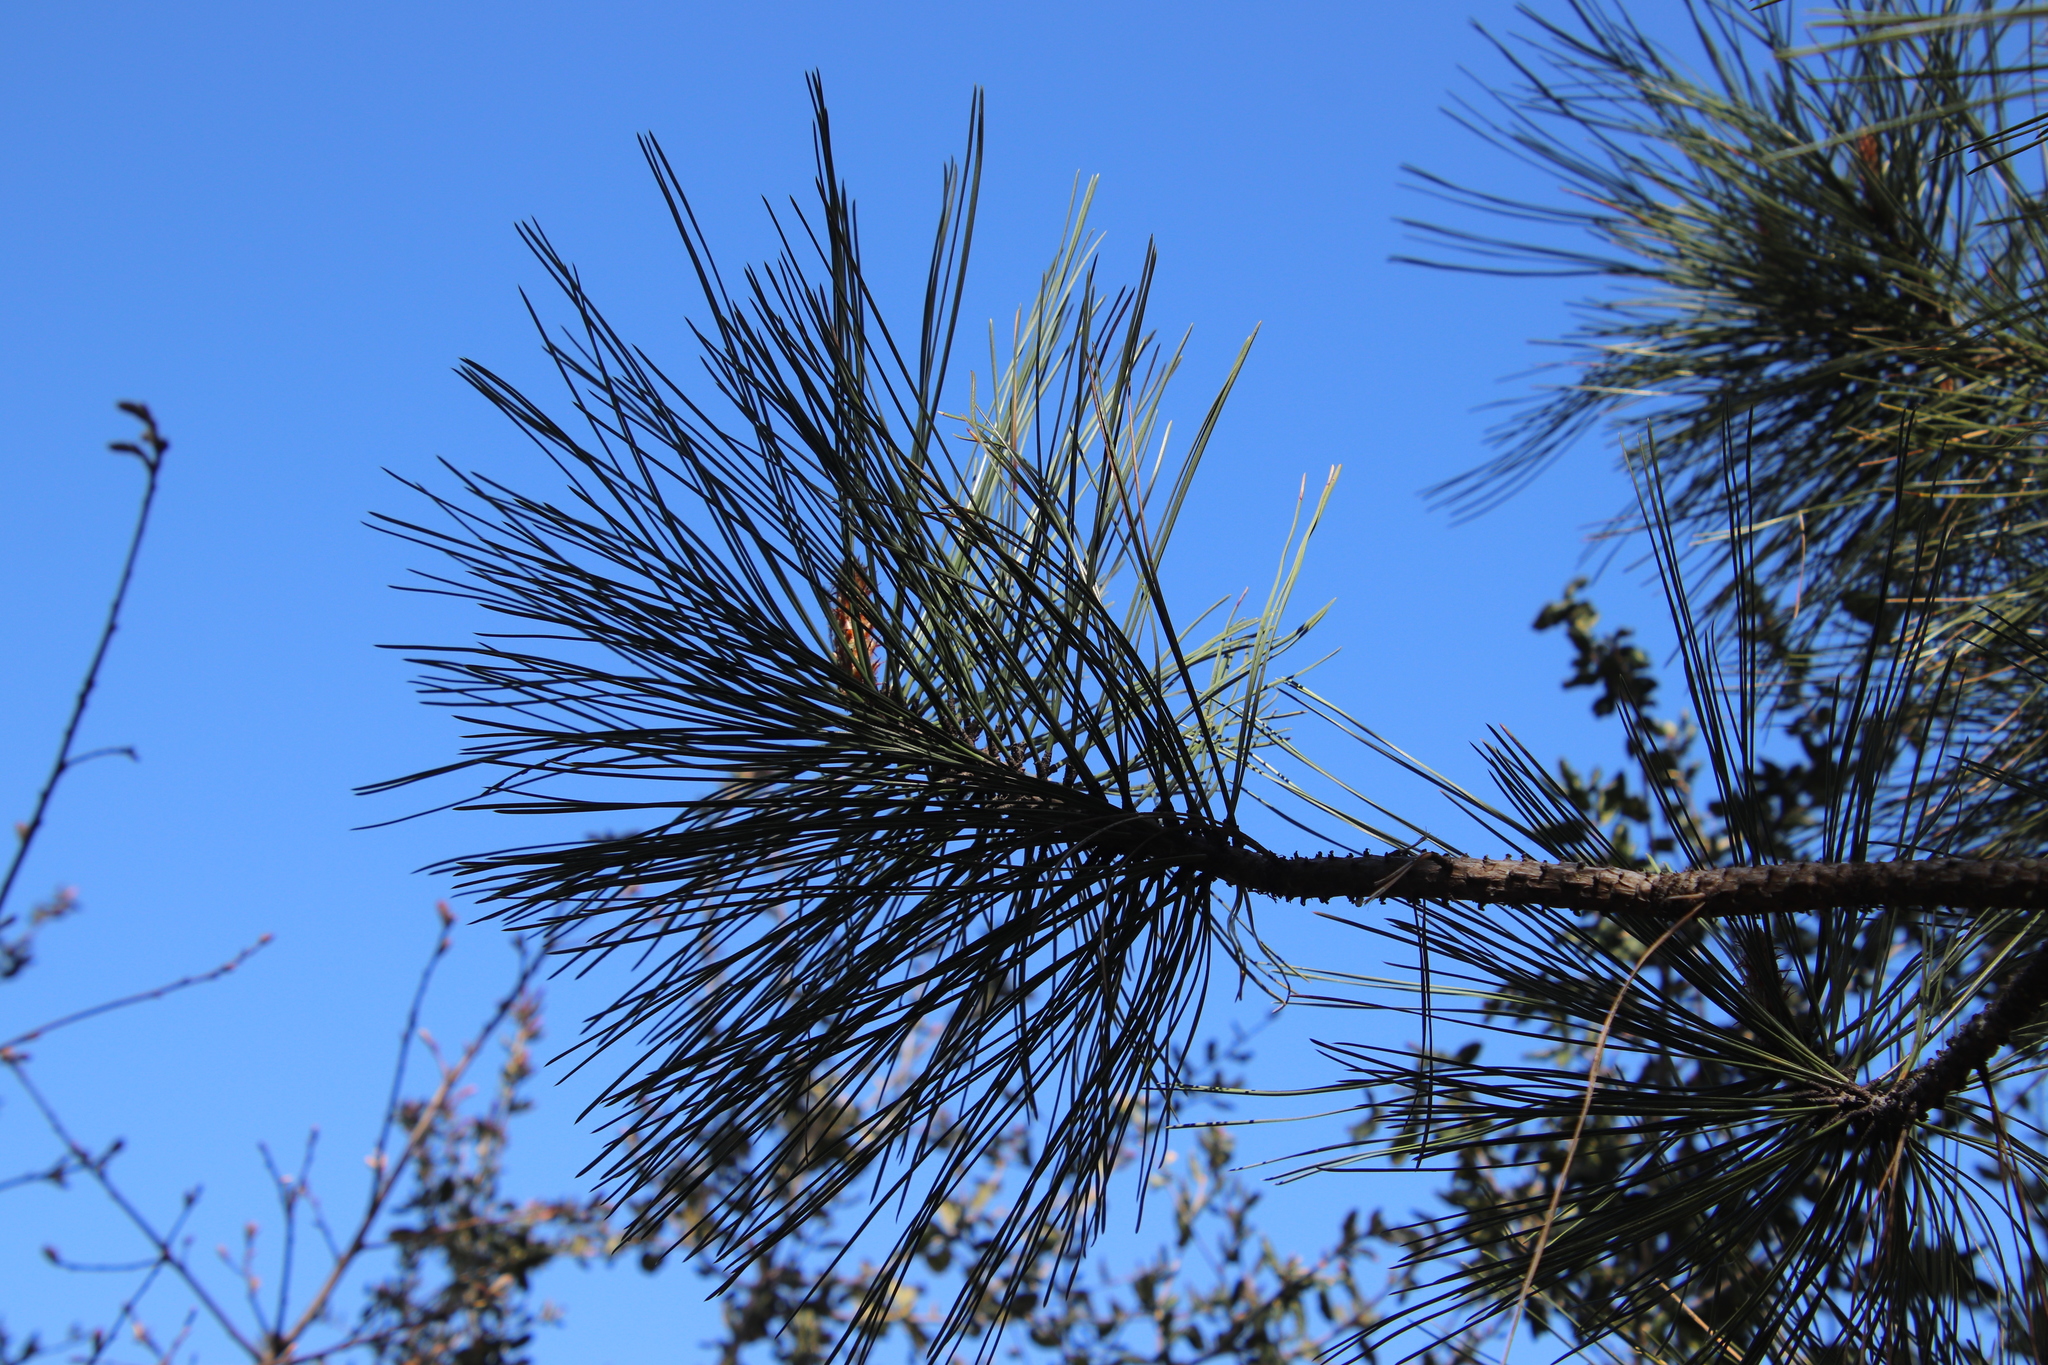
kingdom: Plantae
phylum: Tracheophyta
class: Pinopsida
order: Pinales
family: Pinaceae
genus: Pinus
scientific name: Pinus coulteri
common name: Coulter pine
